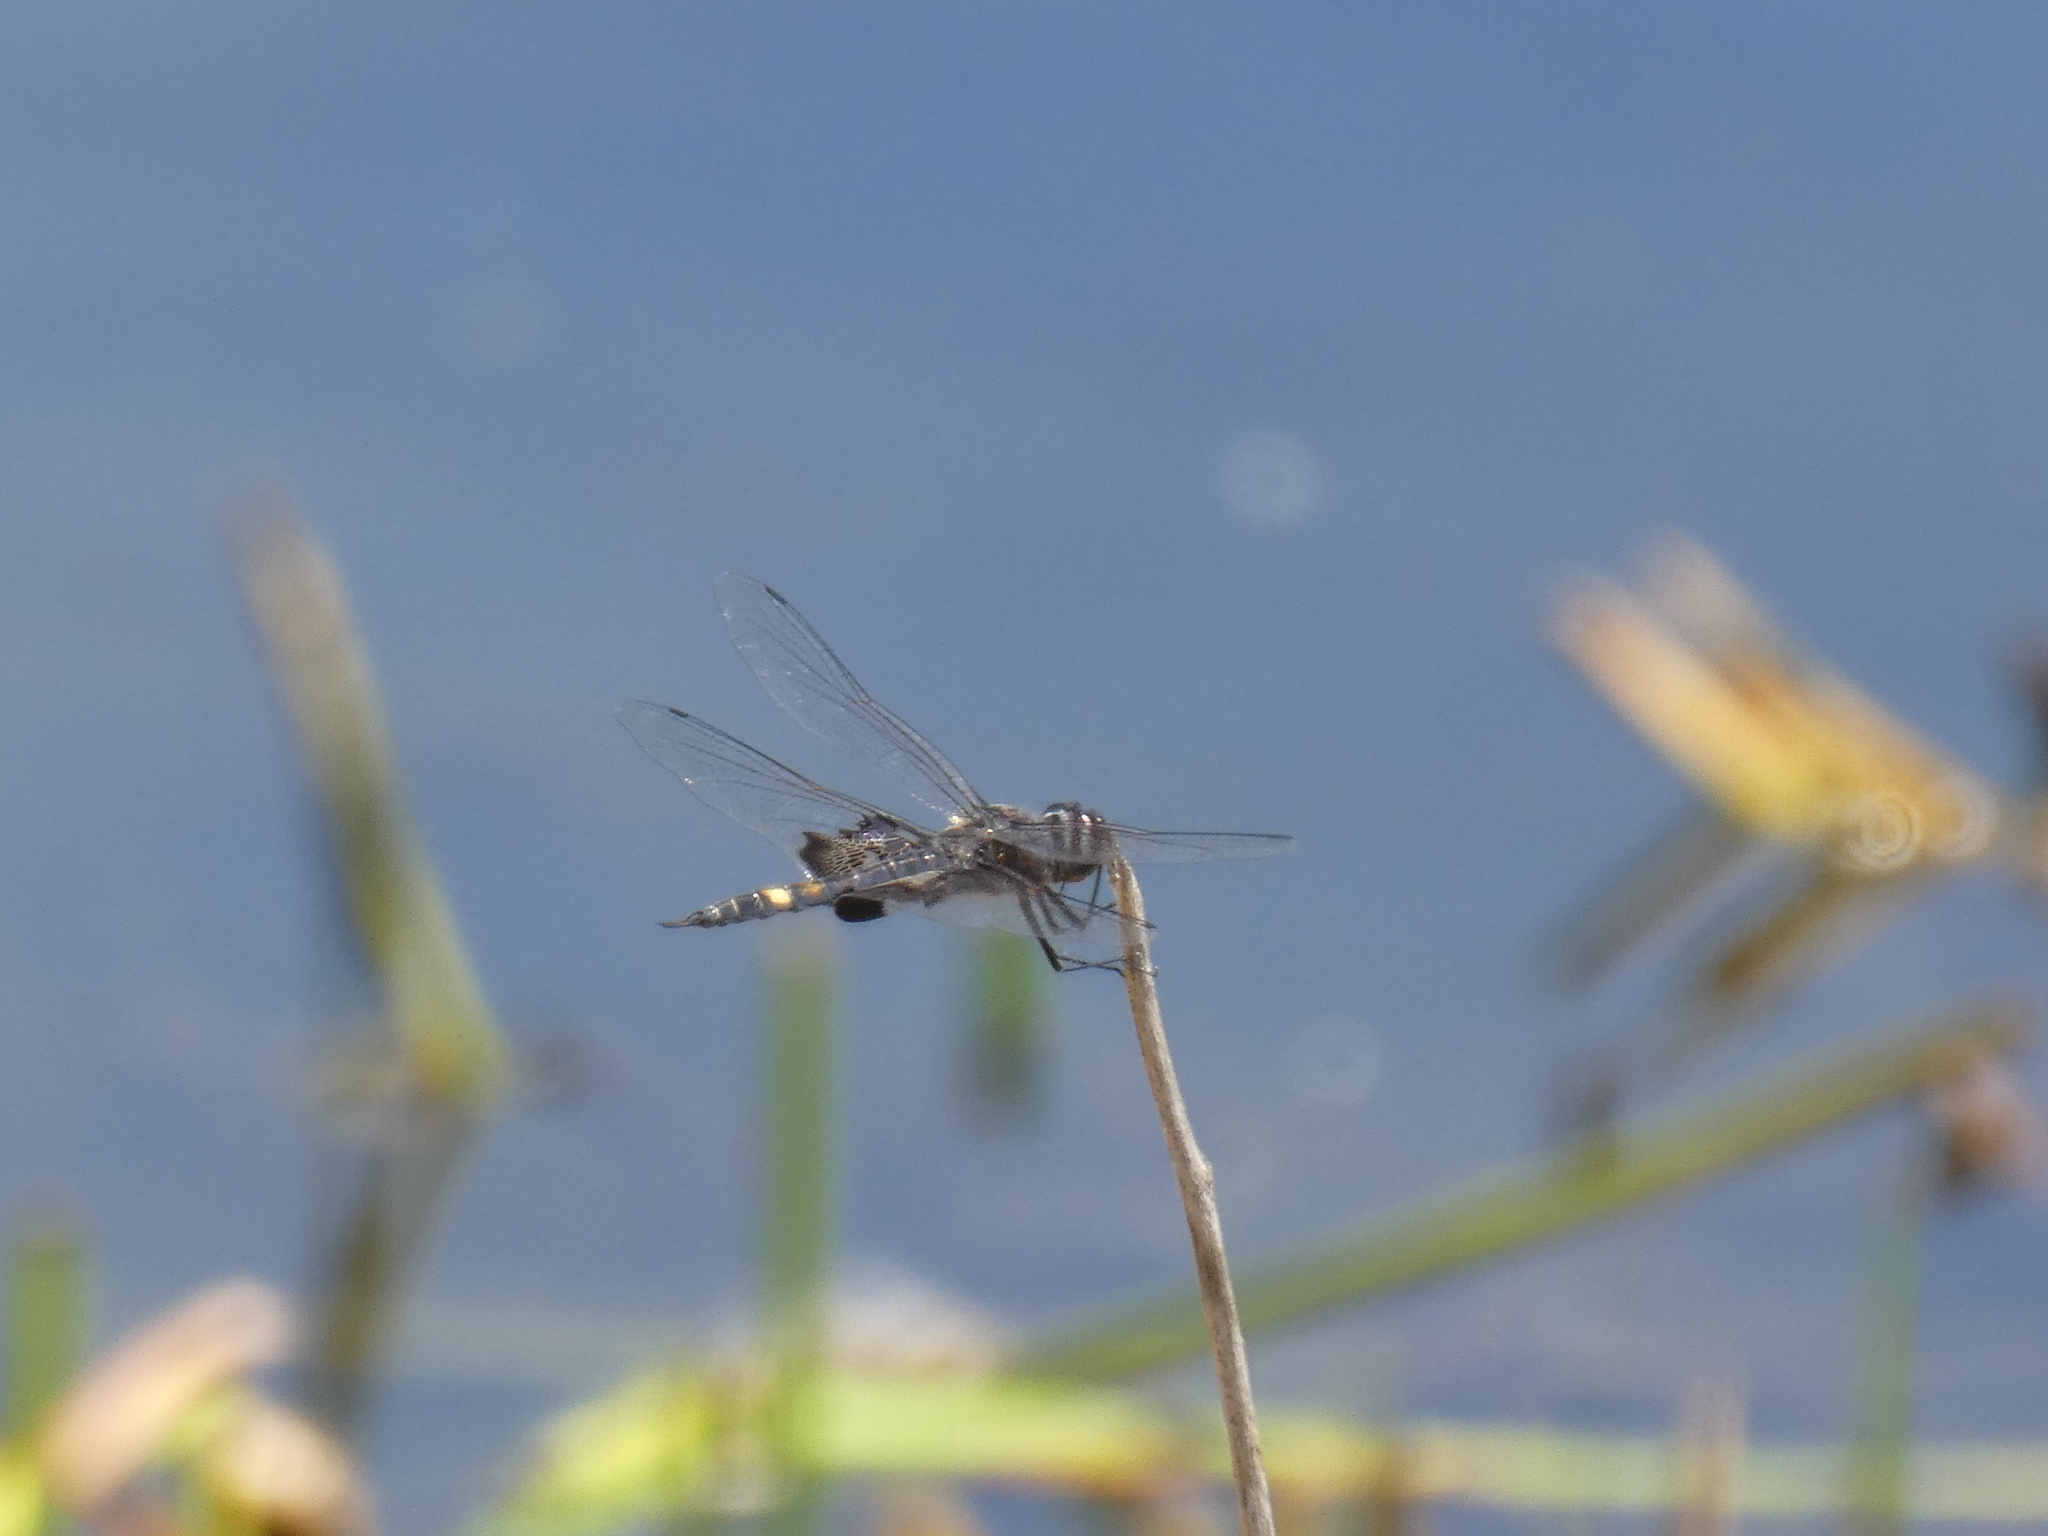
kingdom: Animalia
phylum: Arthropoda
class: Insecta
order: Odonata
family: Libellulidae
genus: Tramea
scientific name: Tramea lacerata
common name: Black saddlebags
